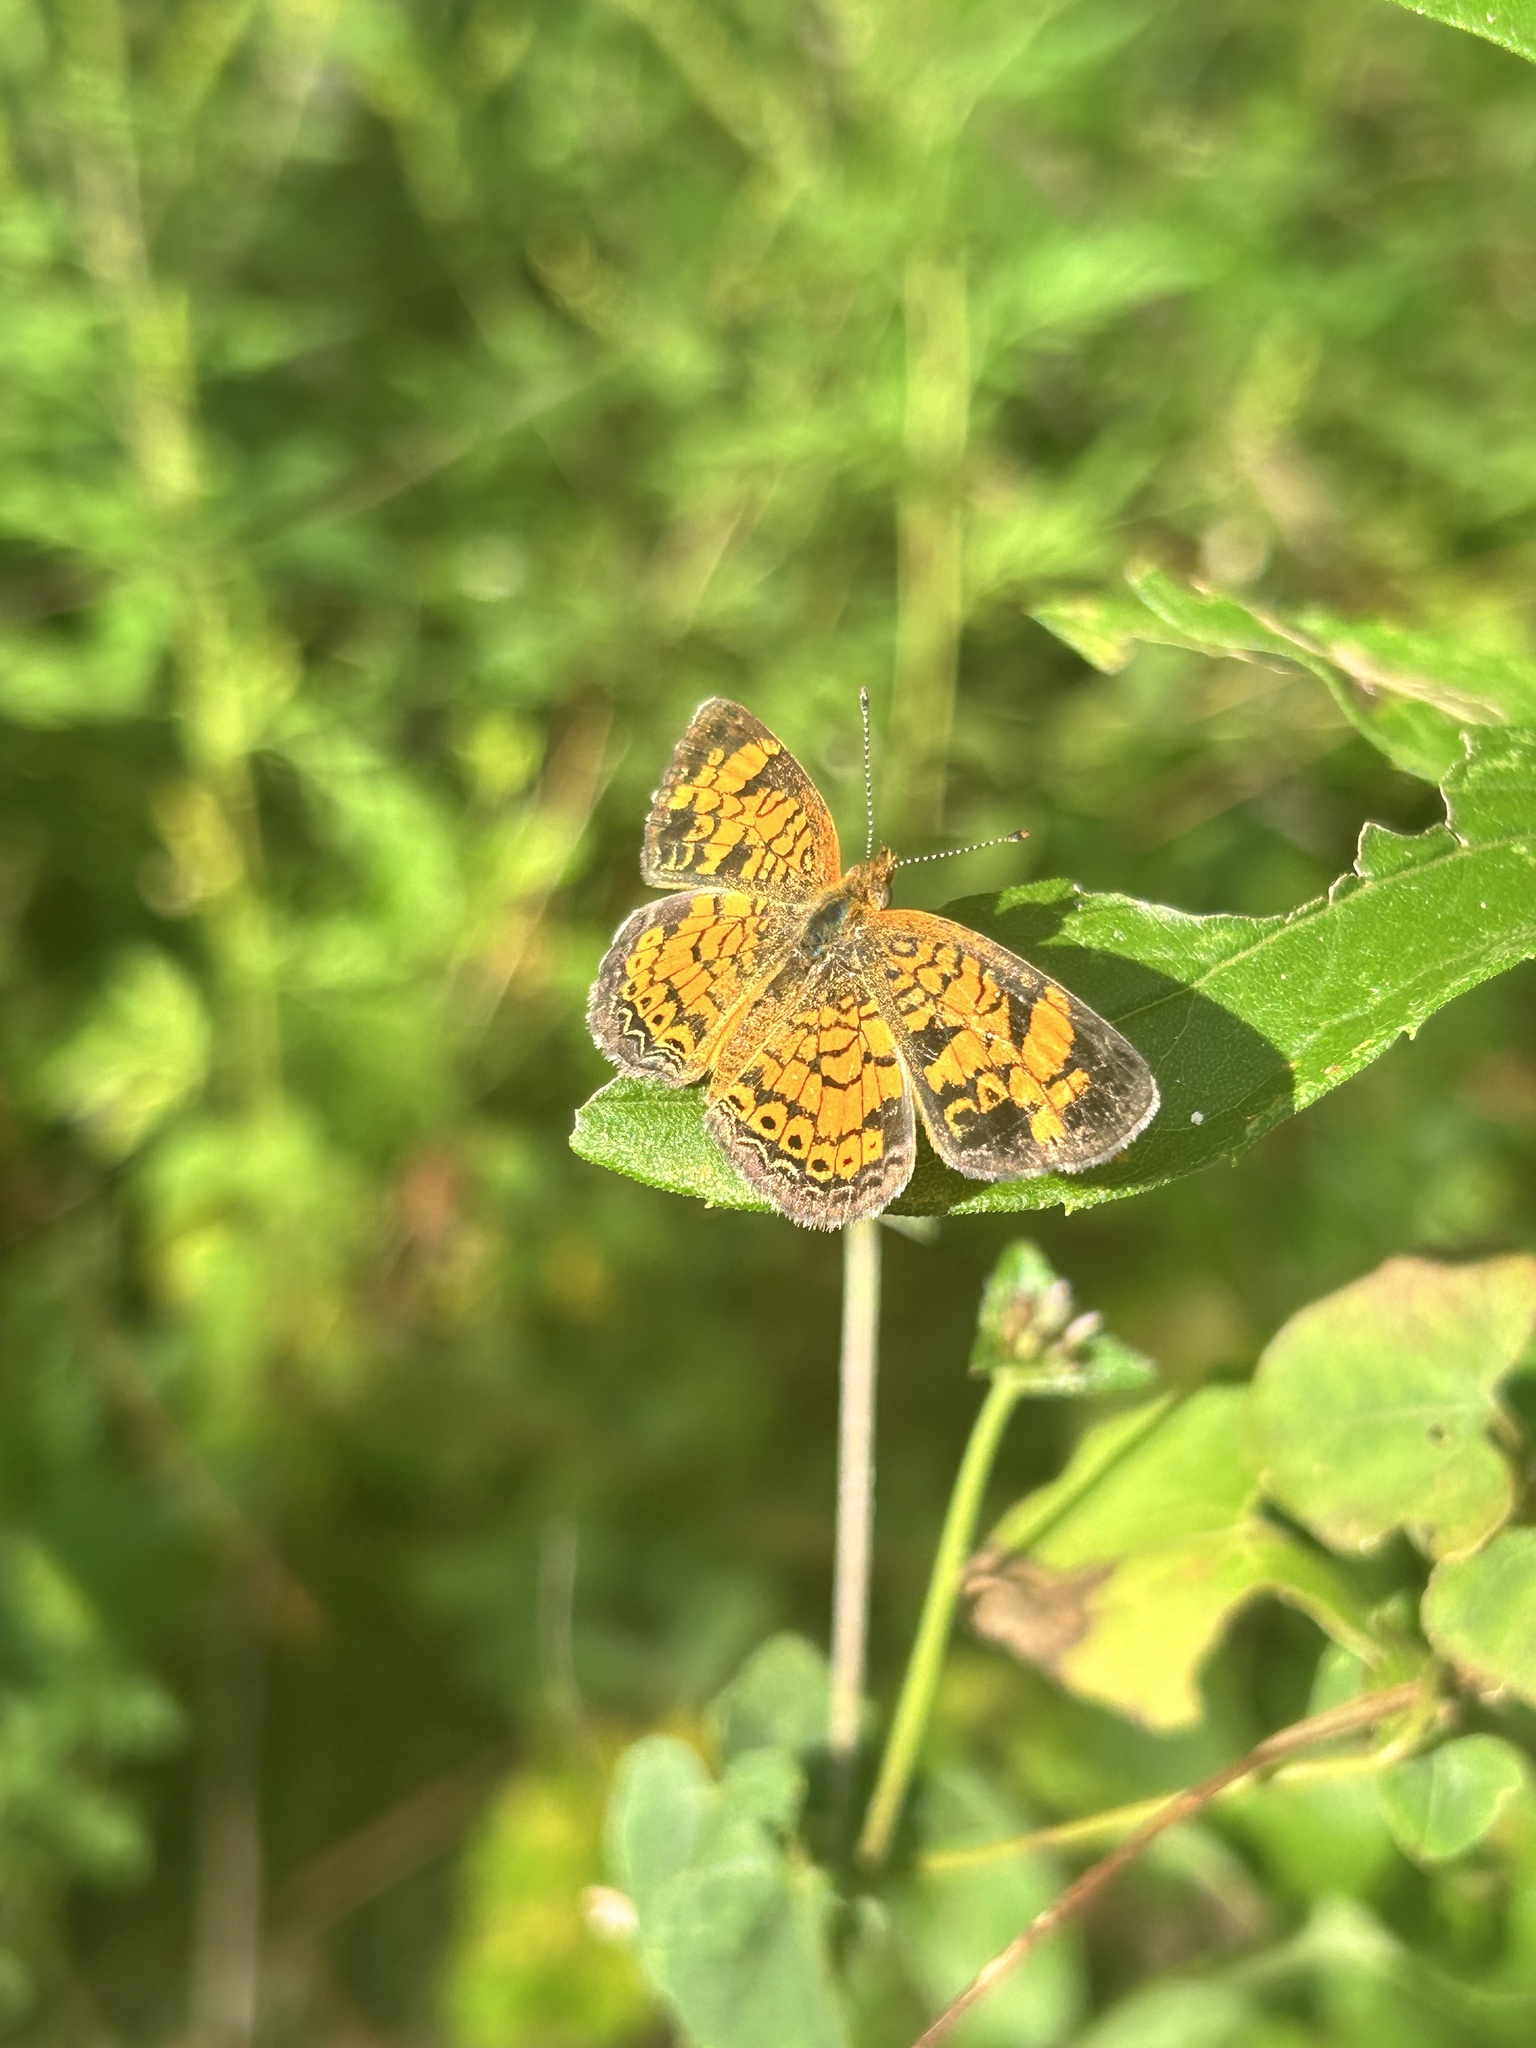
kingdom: Animalia
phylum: Arthropoda
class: Insecta
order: Lepidoptera
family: Nymphalidae
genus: Phyciodes
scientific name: Phyciodes tharos
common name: Pearl crescent
